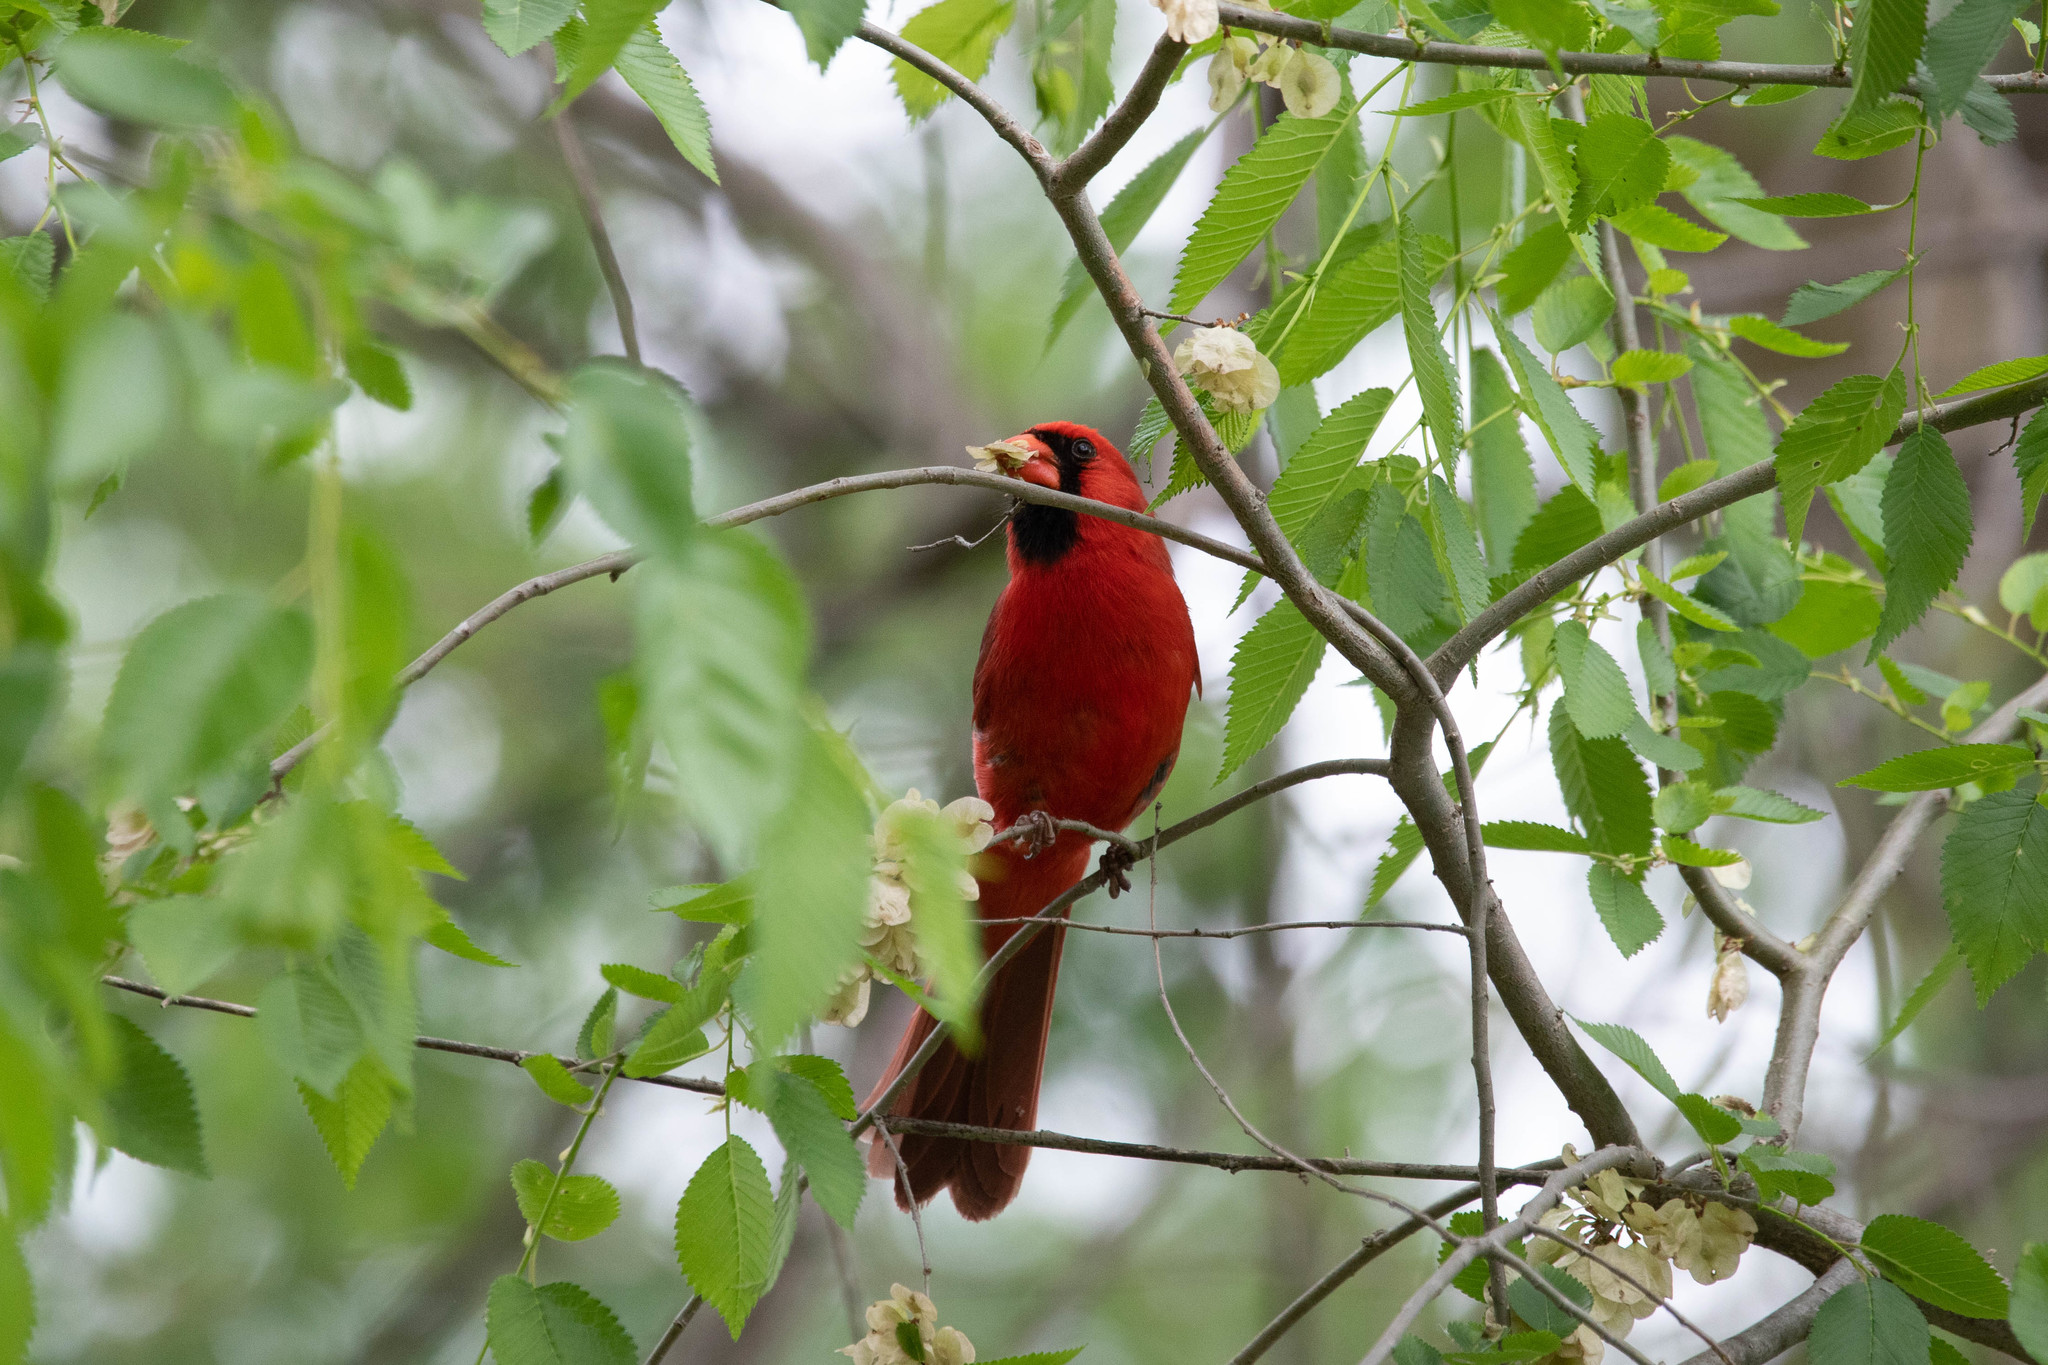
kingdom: Animalia
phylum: Chordata
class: Aves
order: Passeriformes
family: Cardinalidae
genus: Cardinalis
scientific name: Cardinalis cardinalis
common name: Northern cardinal
